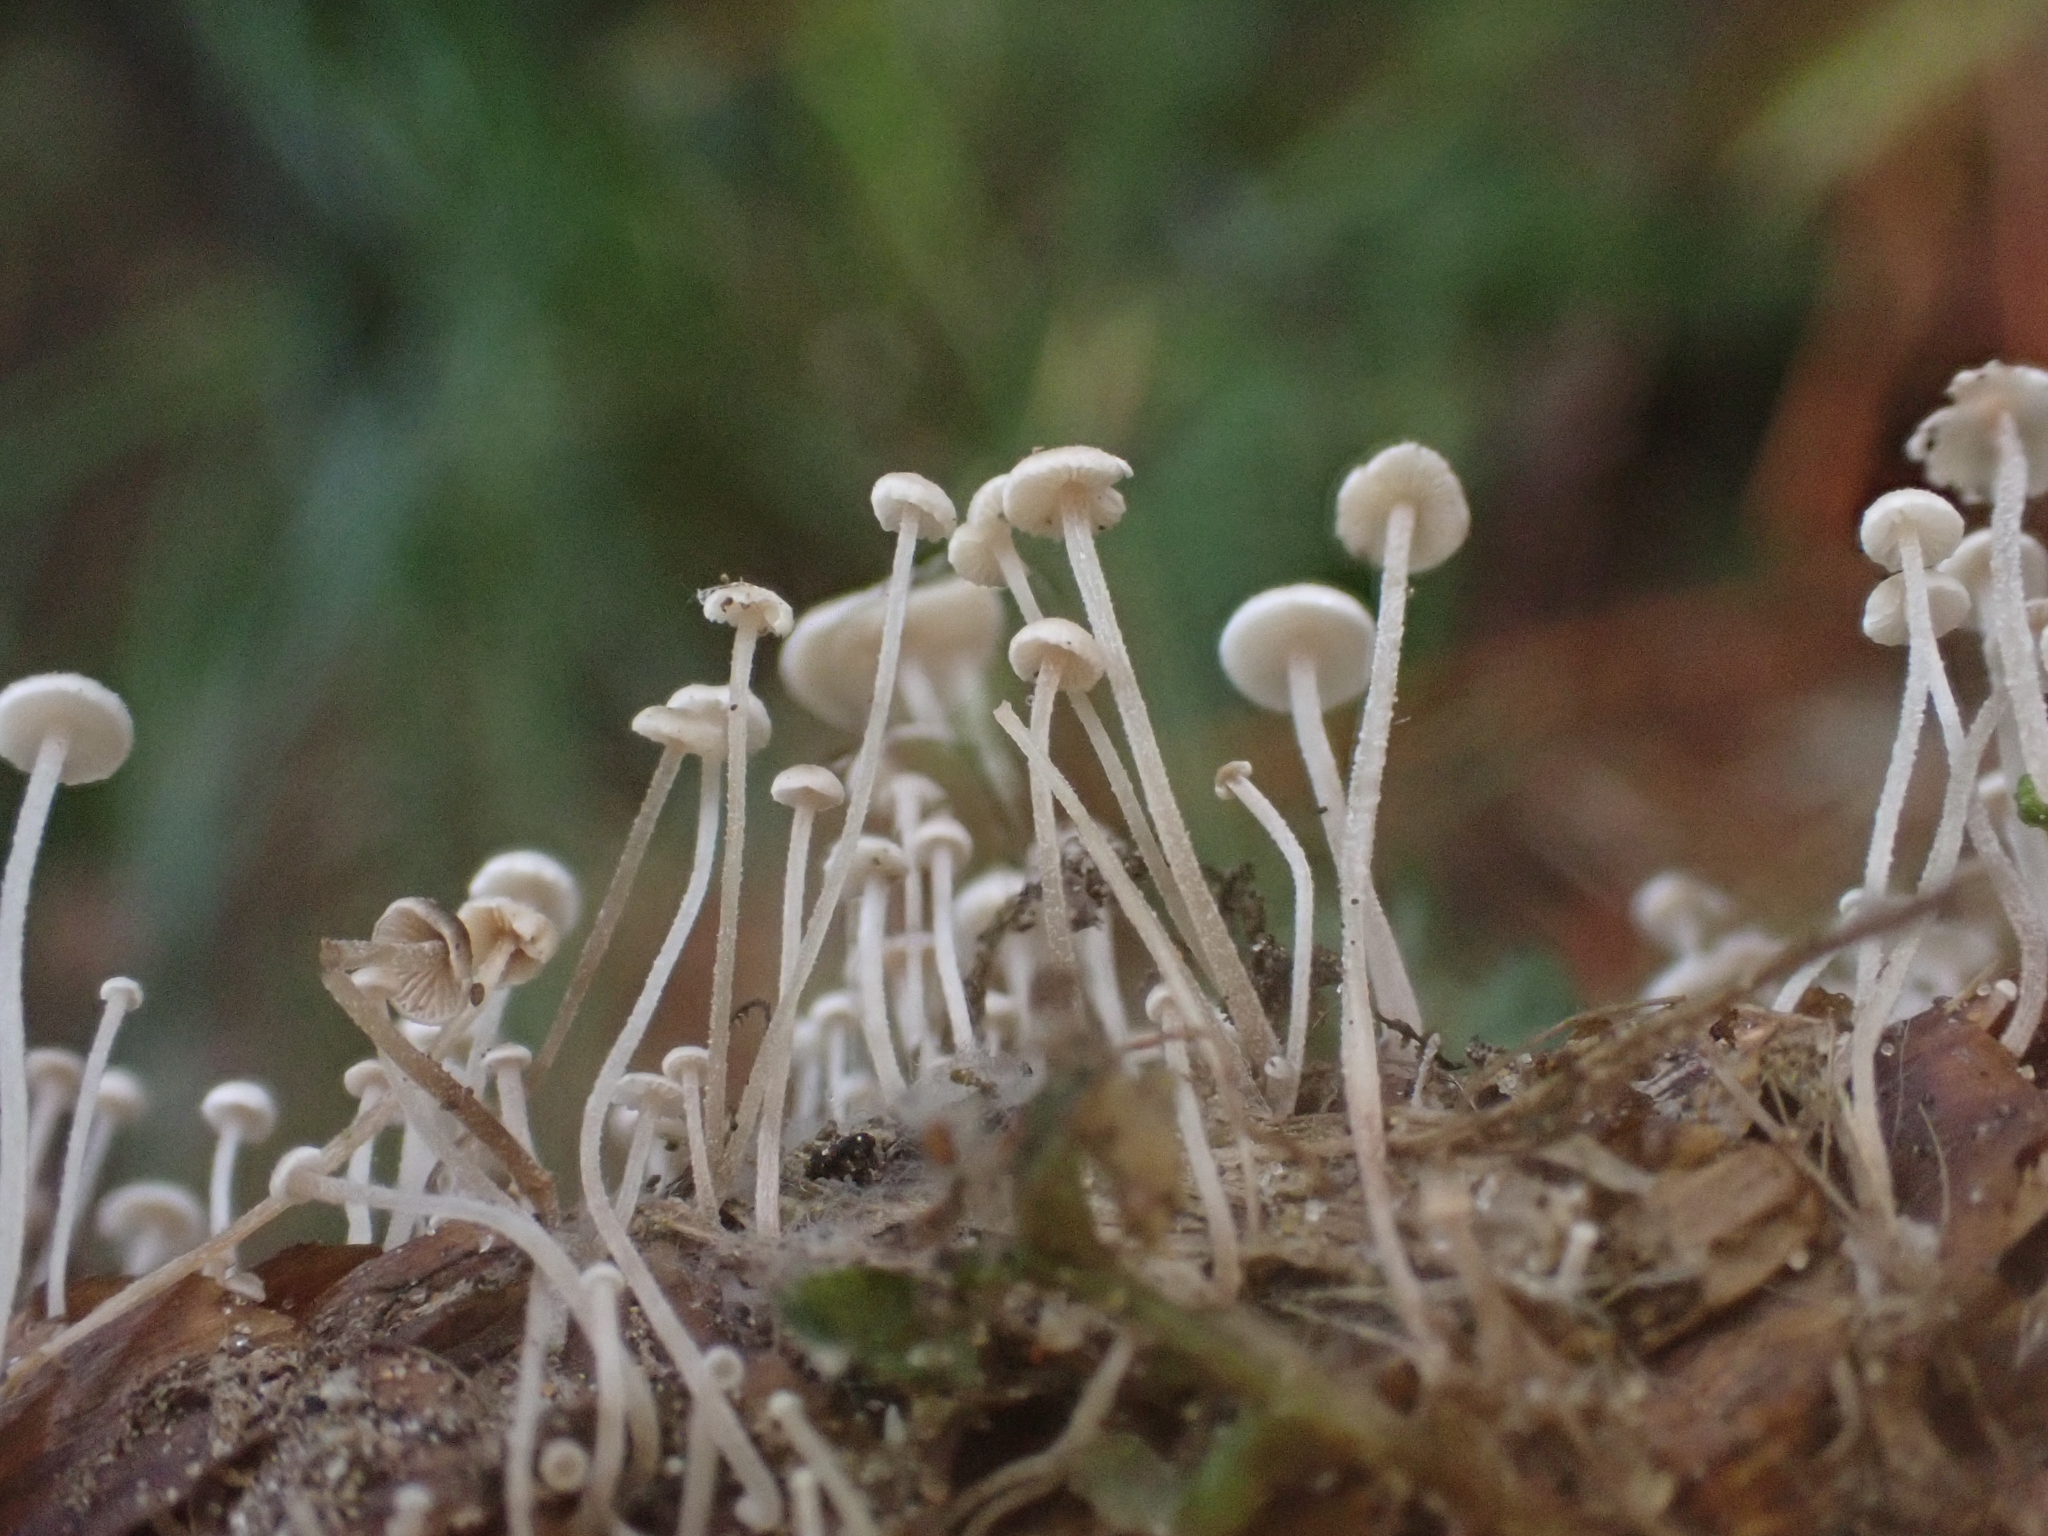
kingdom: Fungi
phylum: Basidiomycota
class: Agaricomycetes
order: Agaricales
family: Marasmiaceae
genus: Baeospora
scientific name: Baeospora myosura
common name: Conifercone cap
